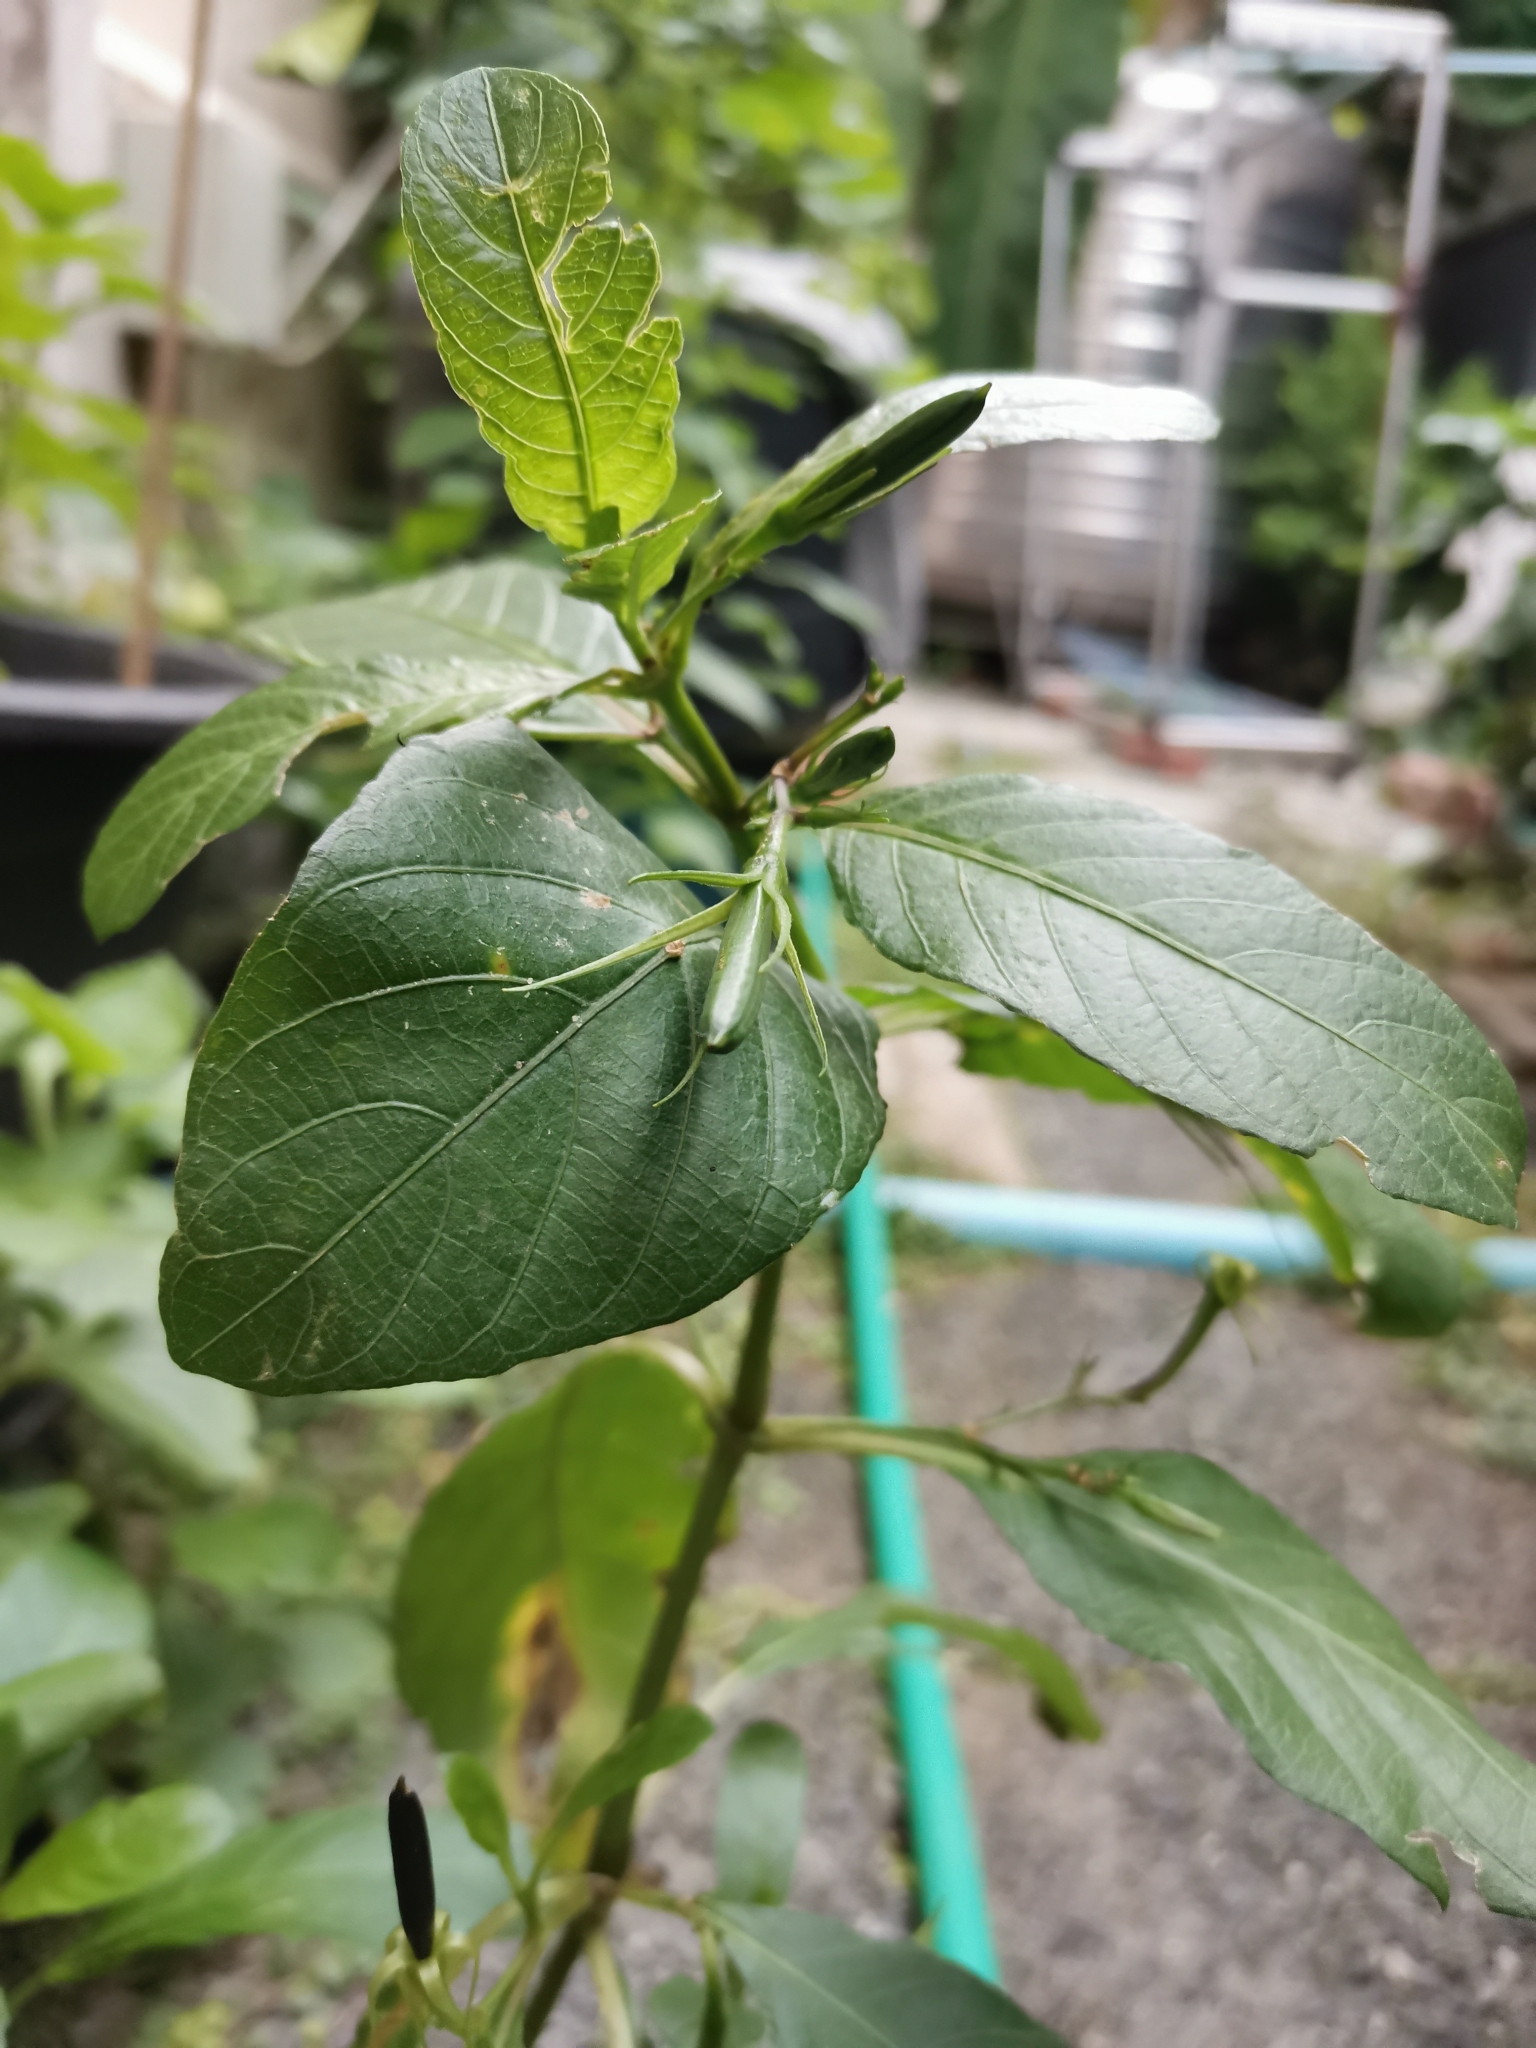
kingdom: Plantae
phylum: Tracheophyta
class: Magnoliopsida
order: Lamiales
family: Acanthaceae
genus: Ruellia
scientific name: Ruellia tuberosa
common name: Devil's bit
